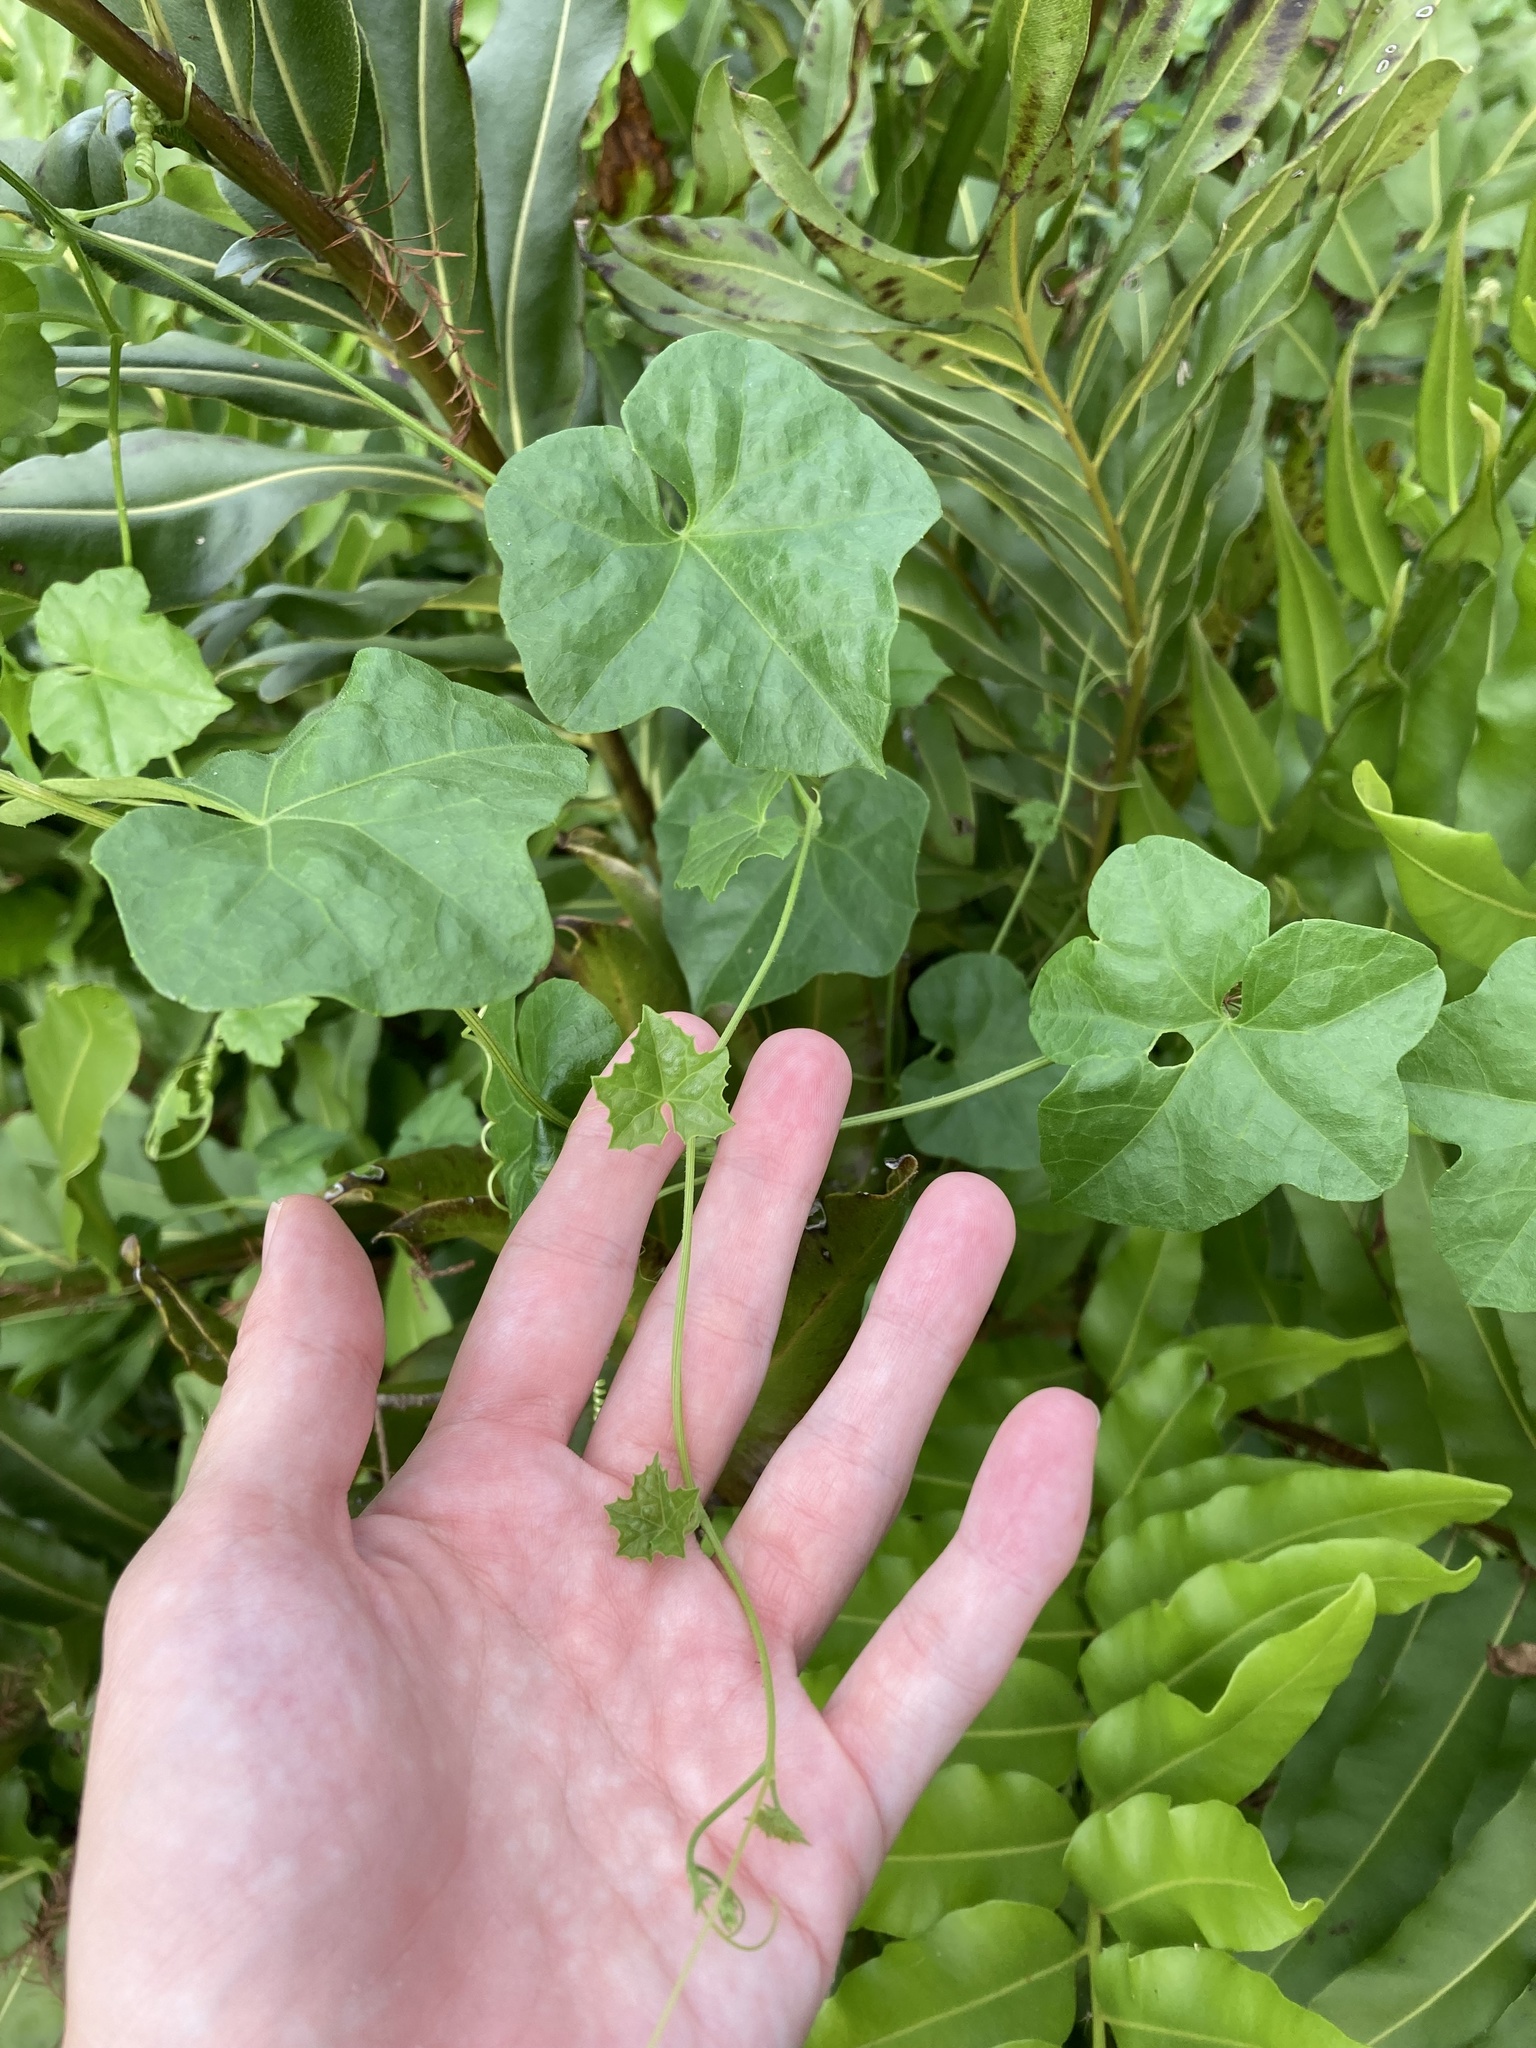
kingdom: Plantae
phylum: Tracheophyta
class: Magnoliopsida
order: Cucurbitales
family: Cucurbitaceae
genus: Melothria
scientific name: Melothria pendula
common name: Creeping-cucumber
